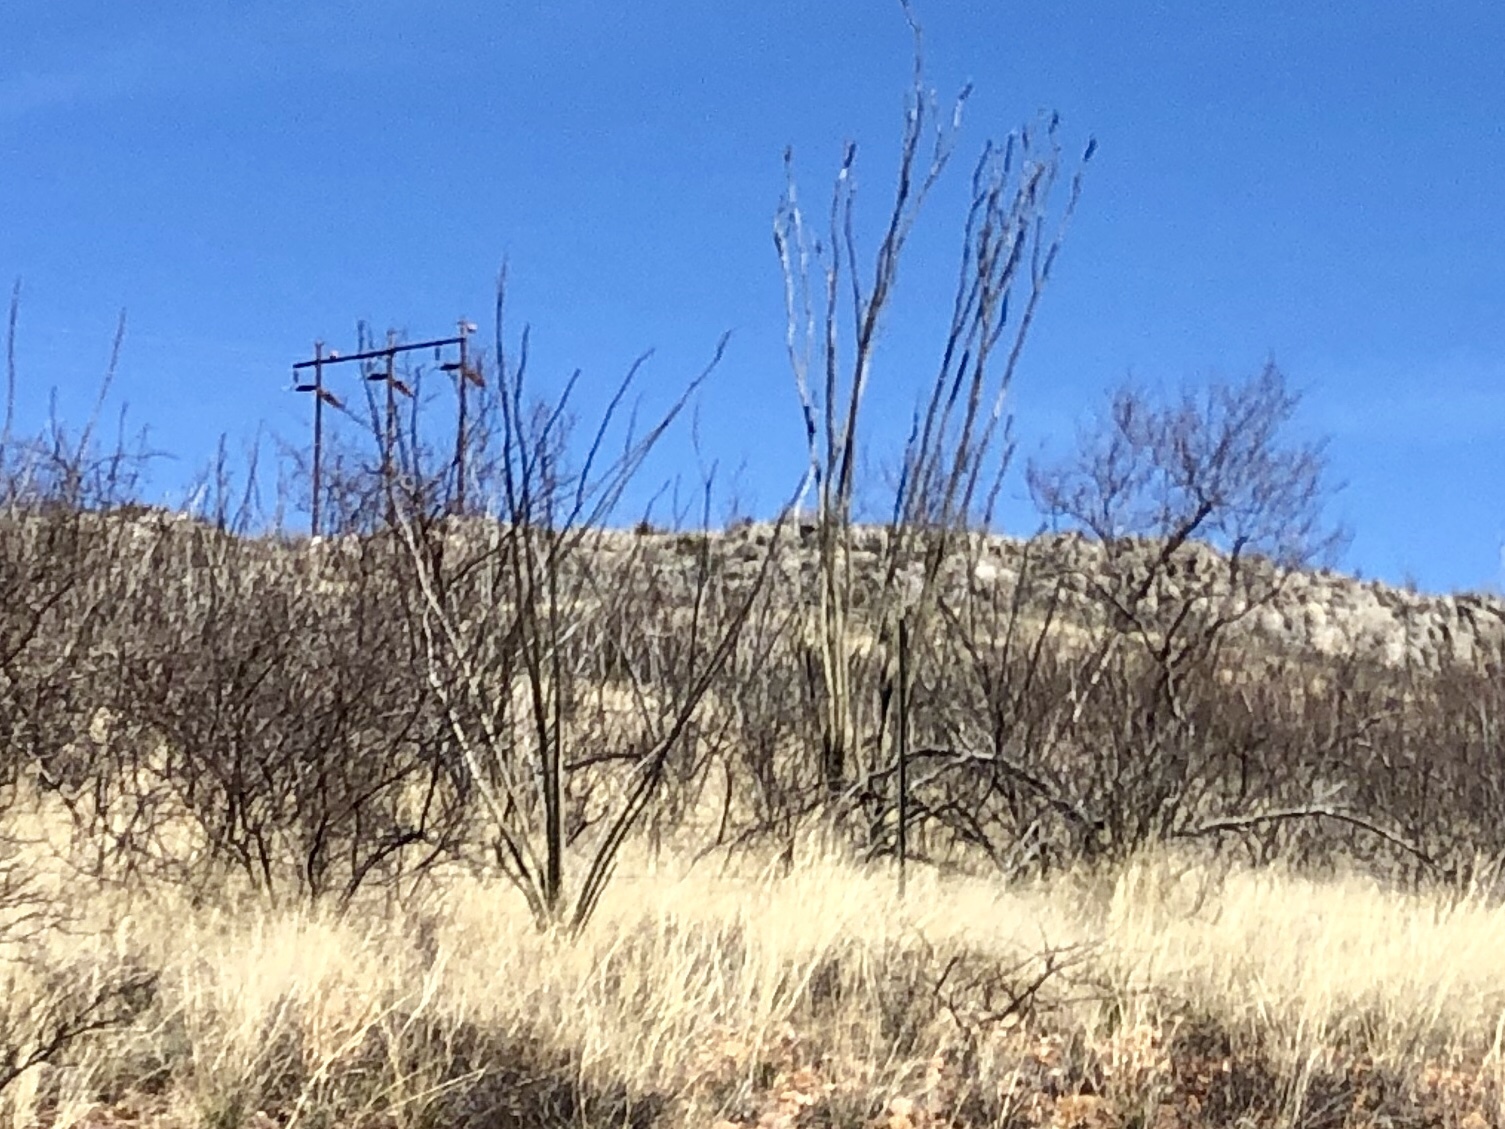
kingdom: Plantae
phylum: Tracheophyta
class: Magnoliopsida
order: Ericales
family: Fouquieriaceae
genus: Fouquieria
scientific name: Fouquieria splendens
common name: Vine-cactus
